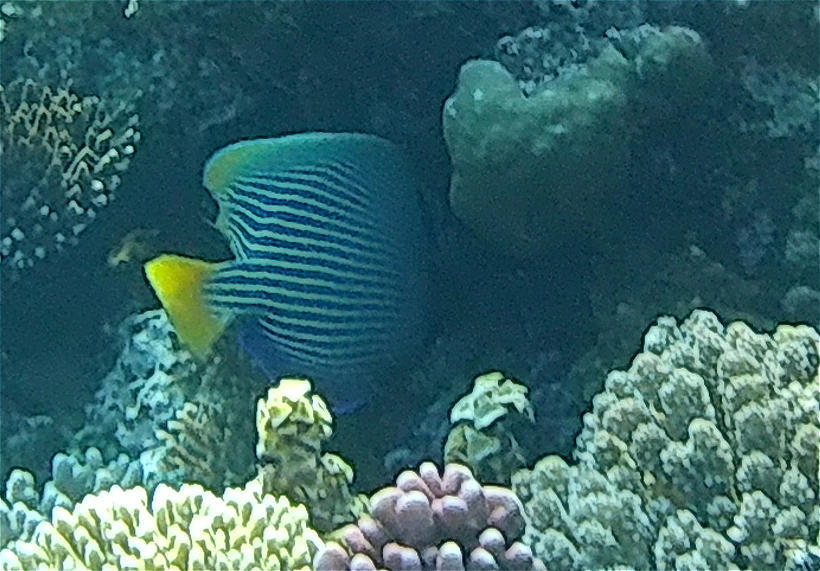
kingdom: Animalia
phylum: Chordata
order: Perciformes
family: Pomacanthidae
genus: Pomacanthus
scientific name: Pomacanthus imperator
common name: Emperor angelfish
